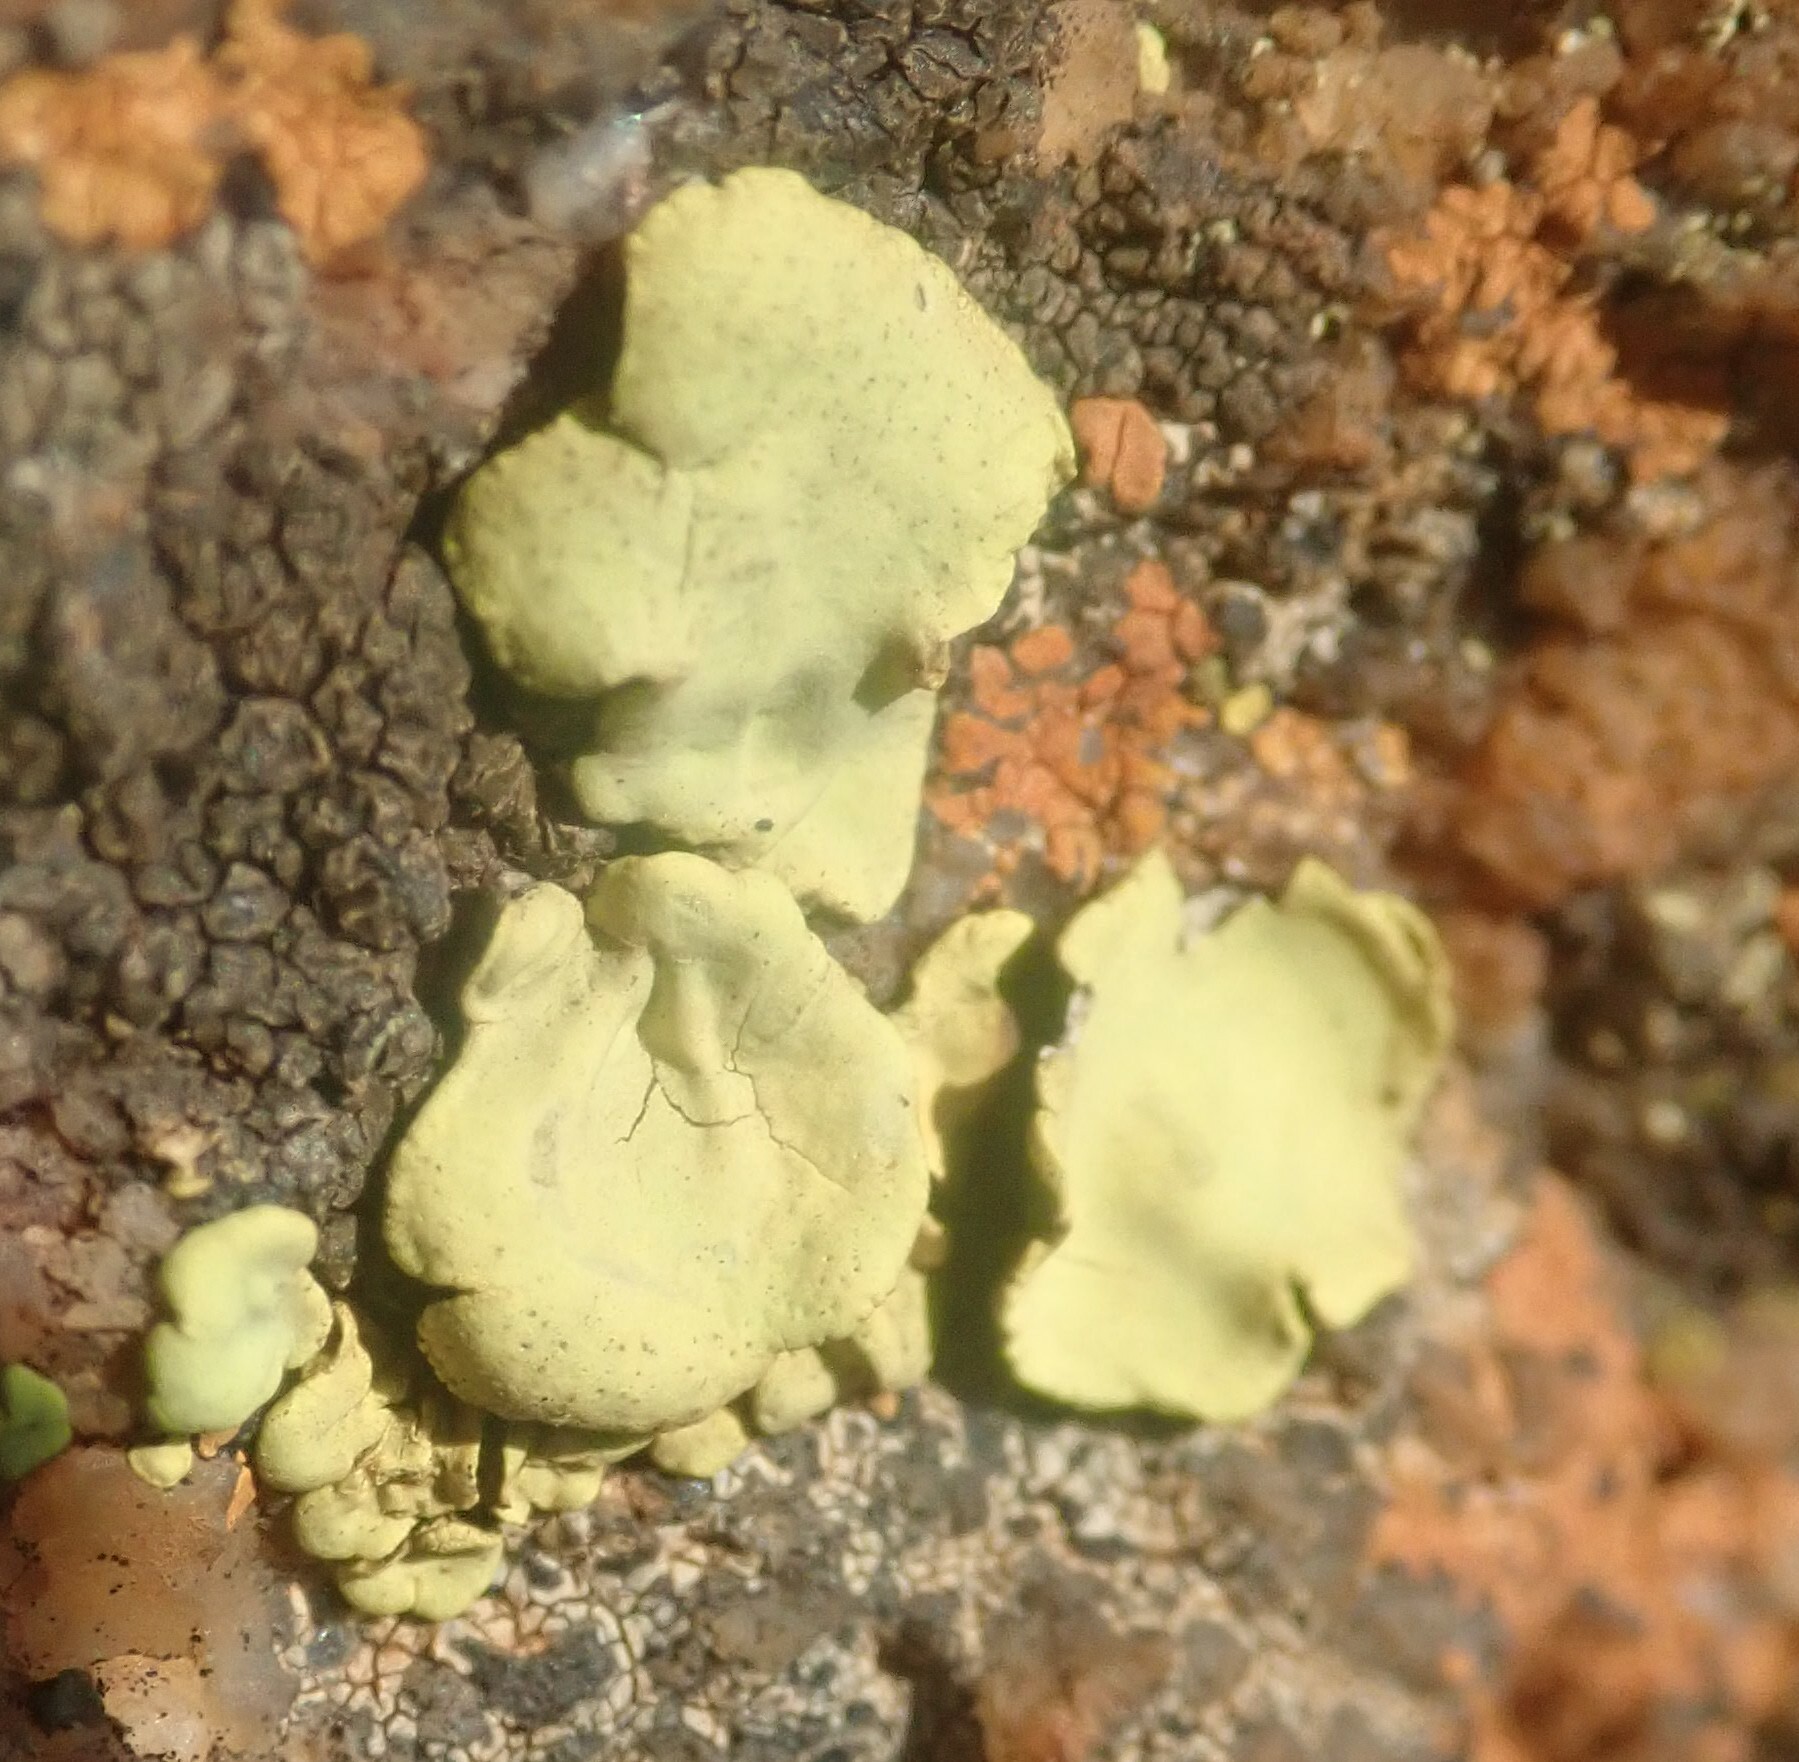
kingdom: Fungi
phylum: Ascomycota
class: Lecanoromycetes
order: Caliciales
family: Caliciaceae
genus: Dermatiscum
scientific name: Dermatiscum thunbergii
